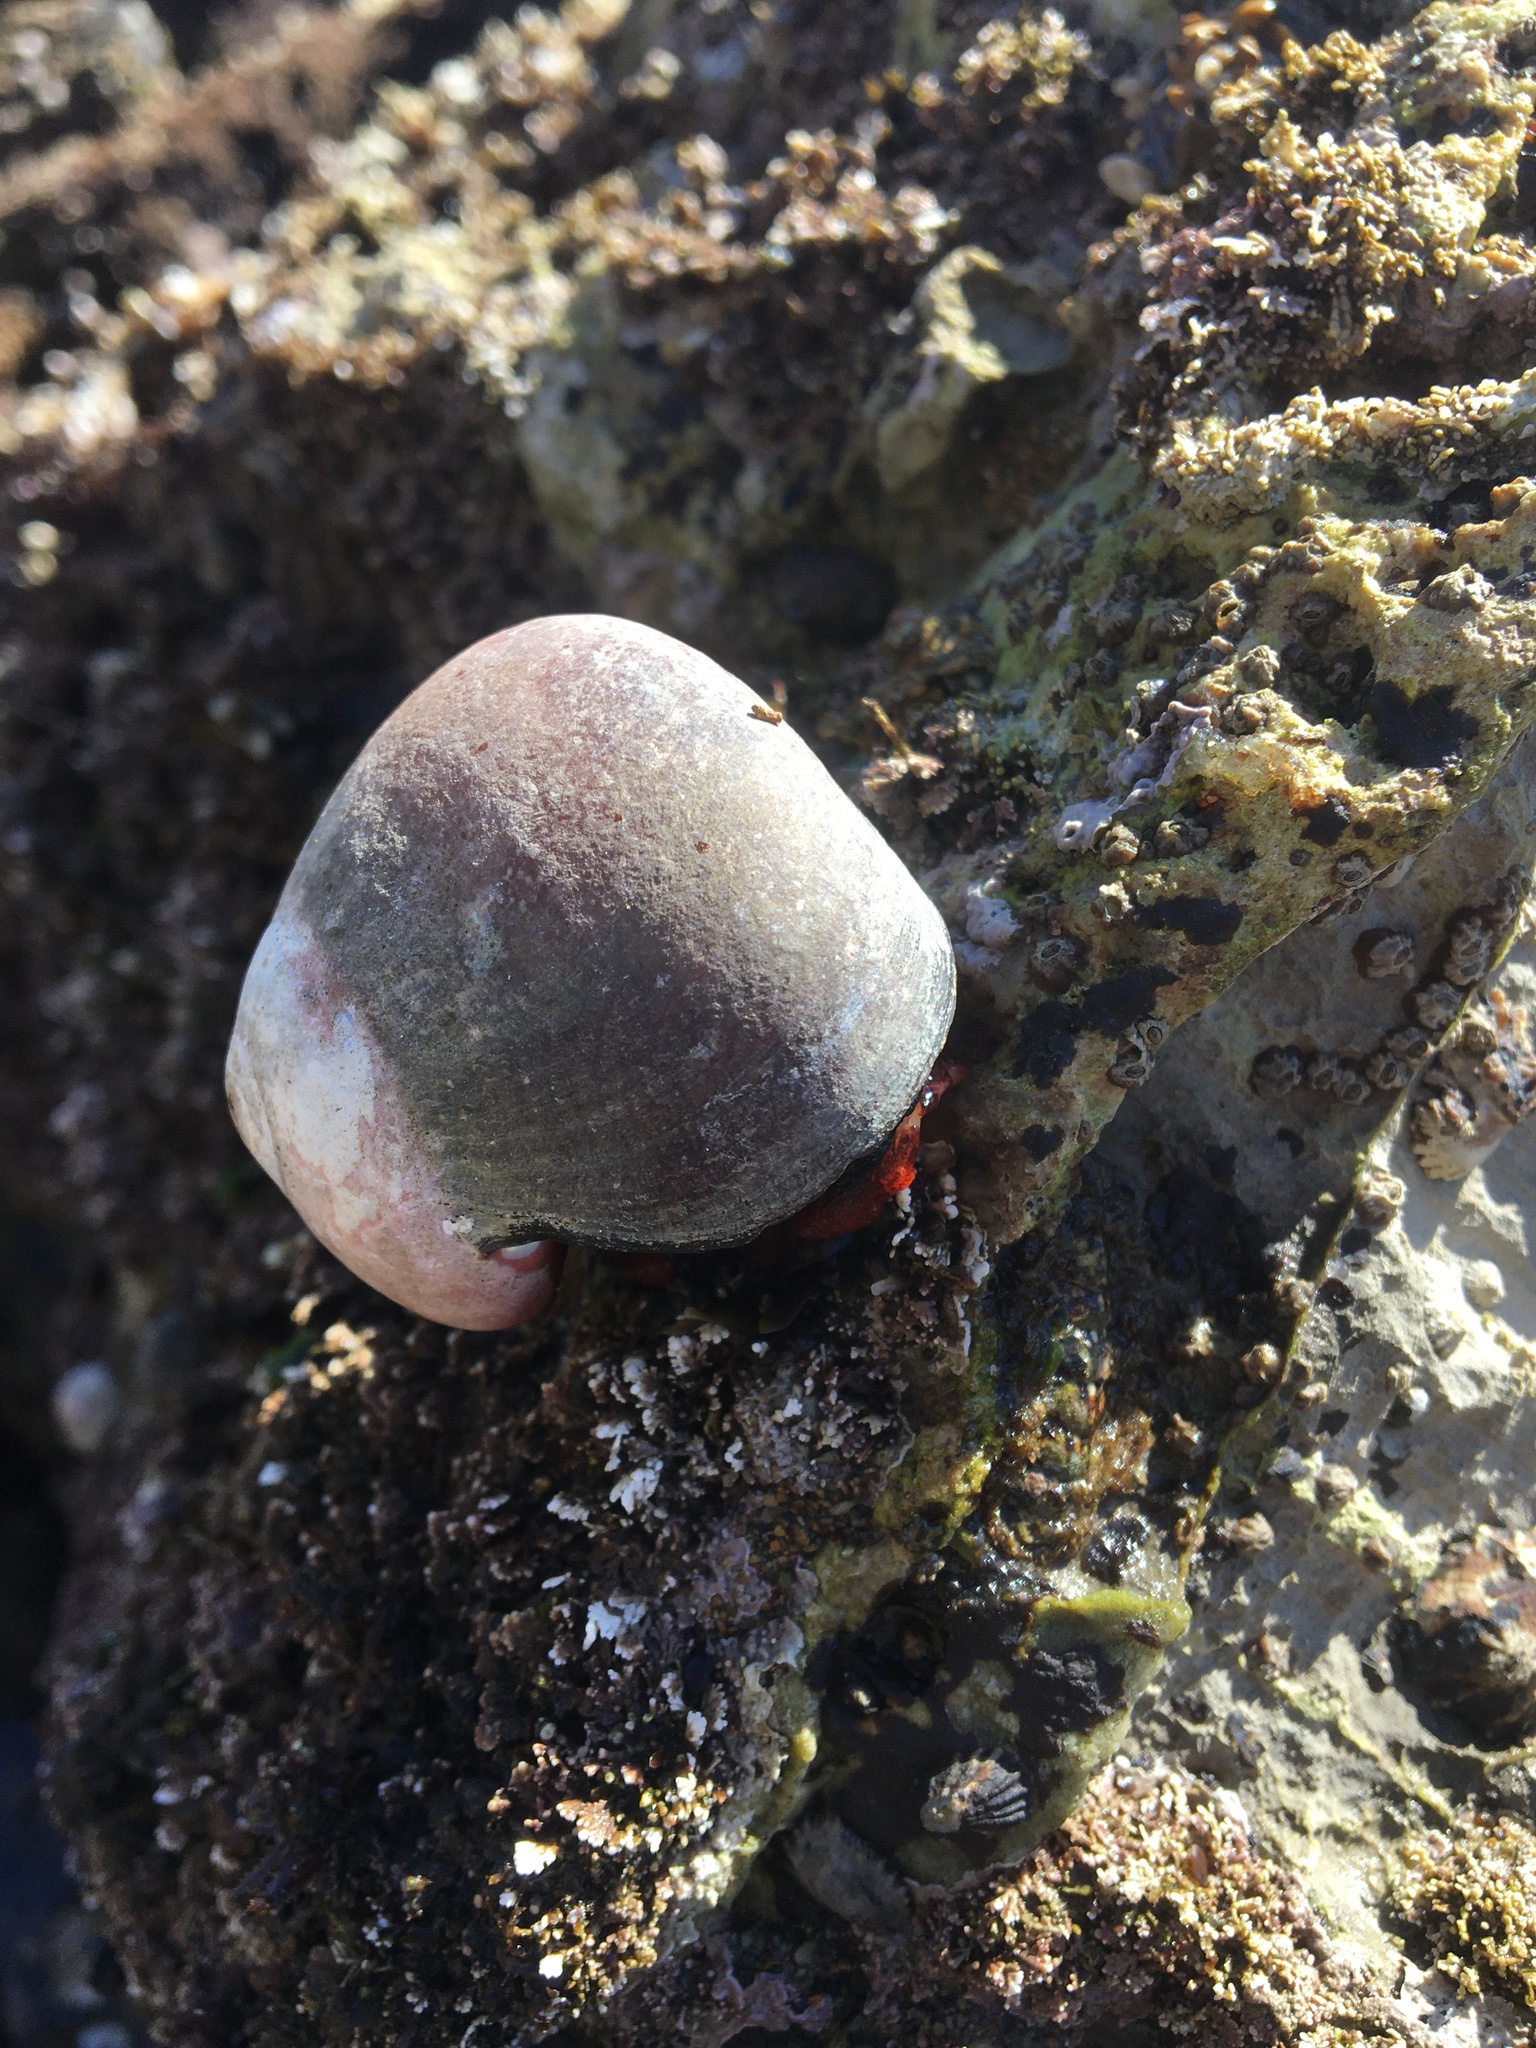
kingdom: Animalia
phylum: Mollusca
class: Gastropoda
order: Trochida
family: Tegulidae
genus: Norrisia
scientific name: Norrisia norrisii
